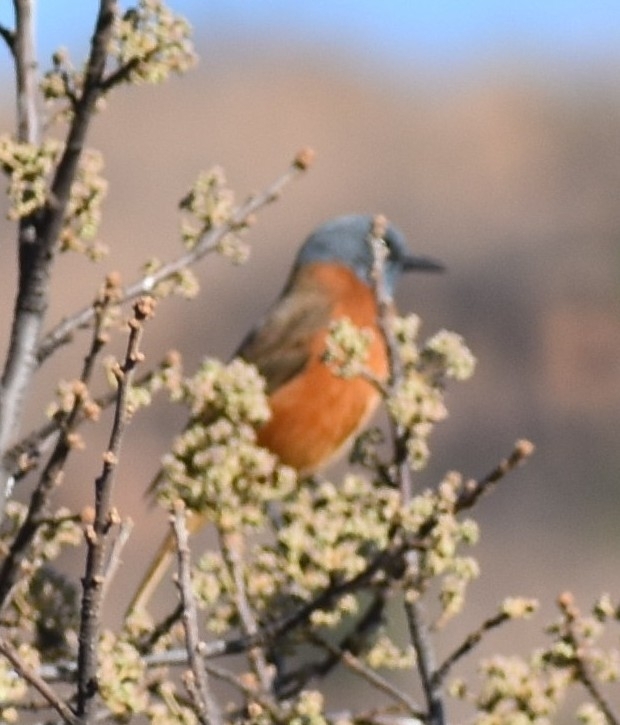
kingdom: Animalia
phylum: Chordata
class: Aves
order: Passeriformes
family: Muscicapidae
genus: Monticola
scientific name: Monticola rupestris
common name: Cape rock thrush
